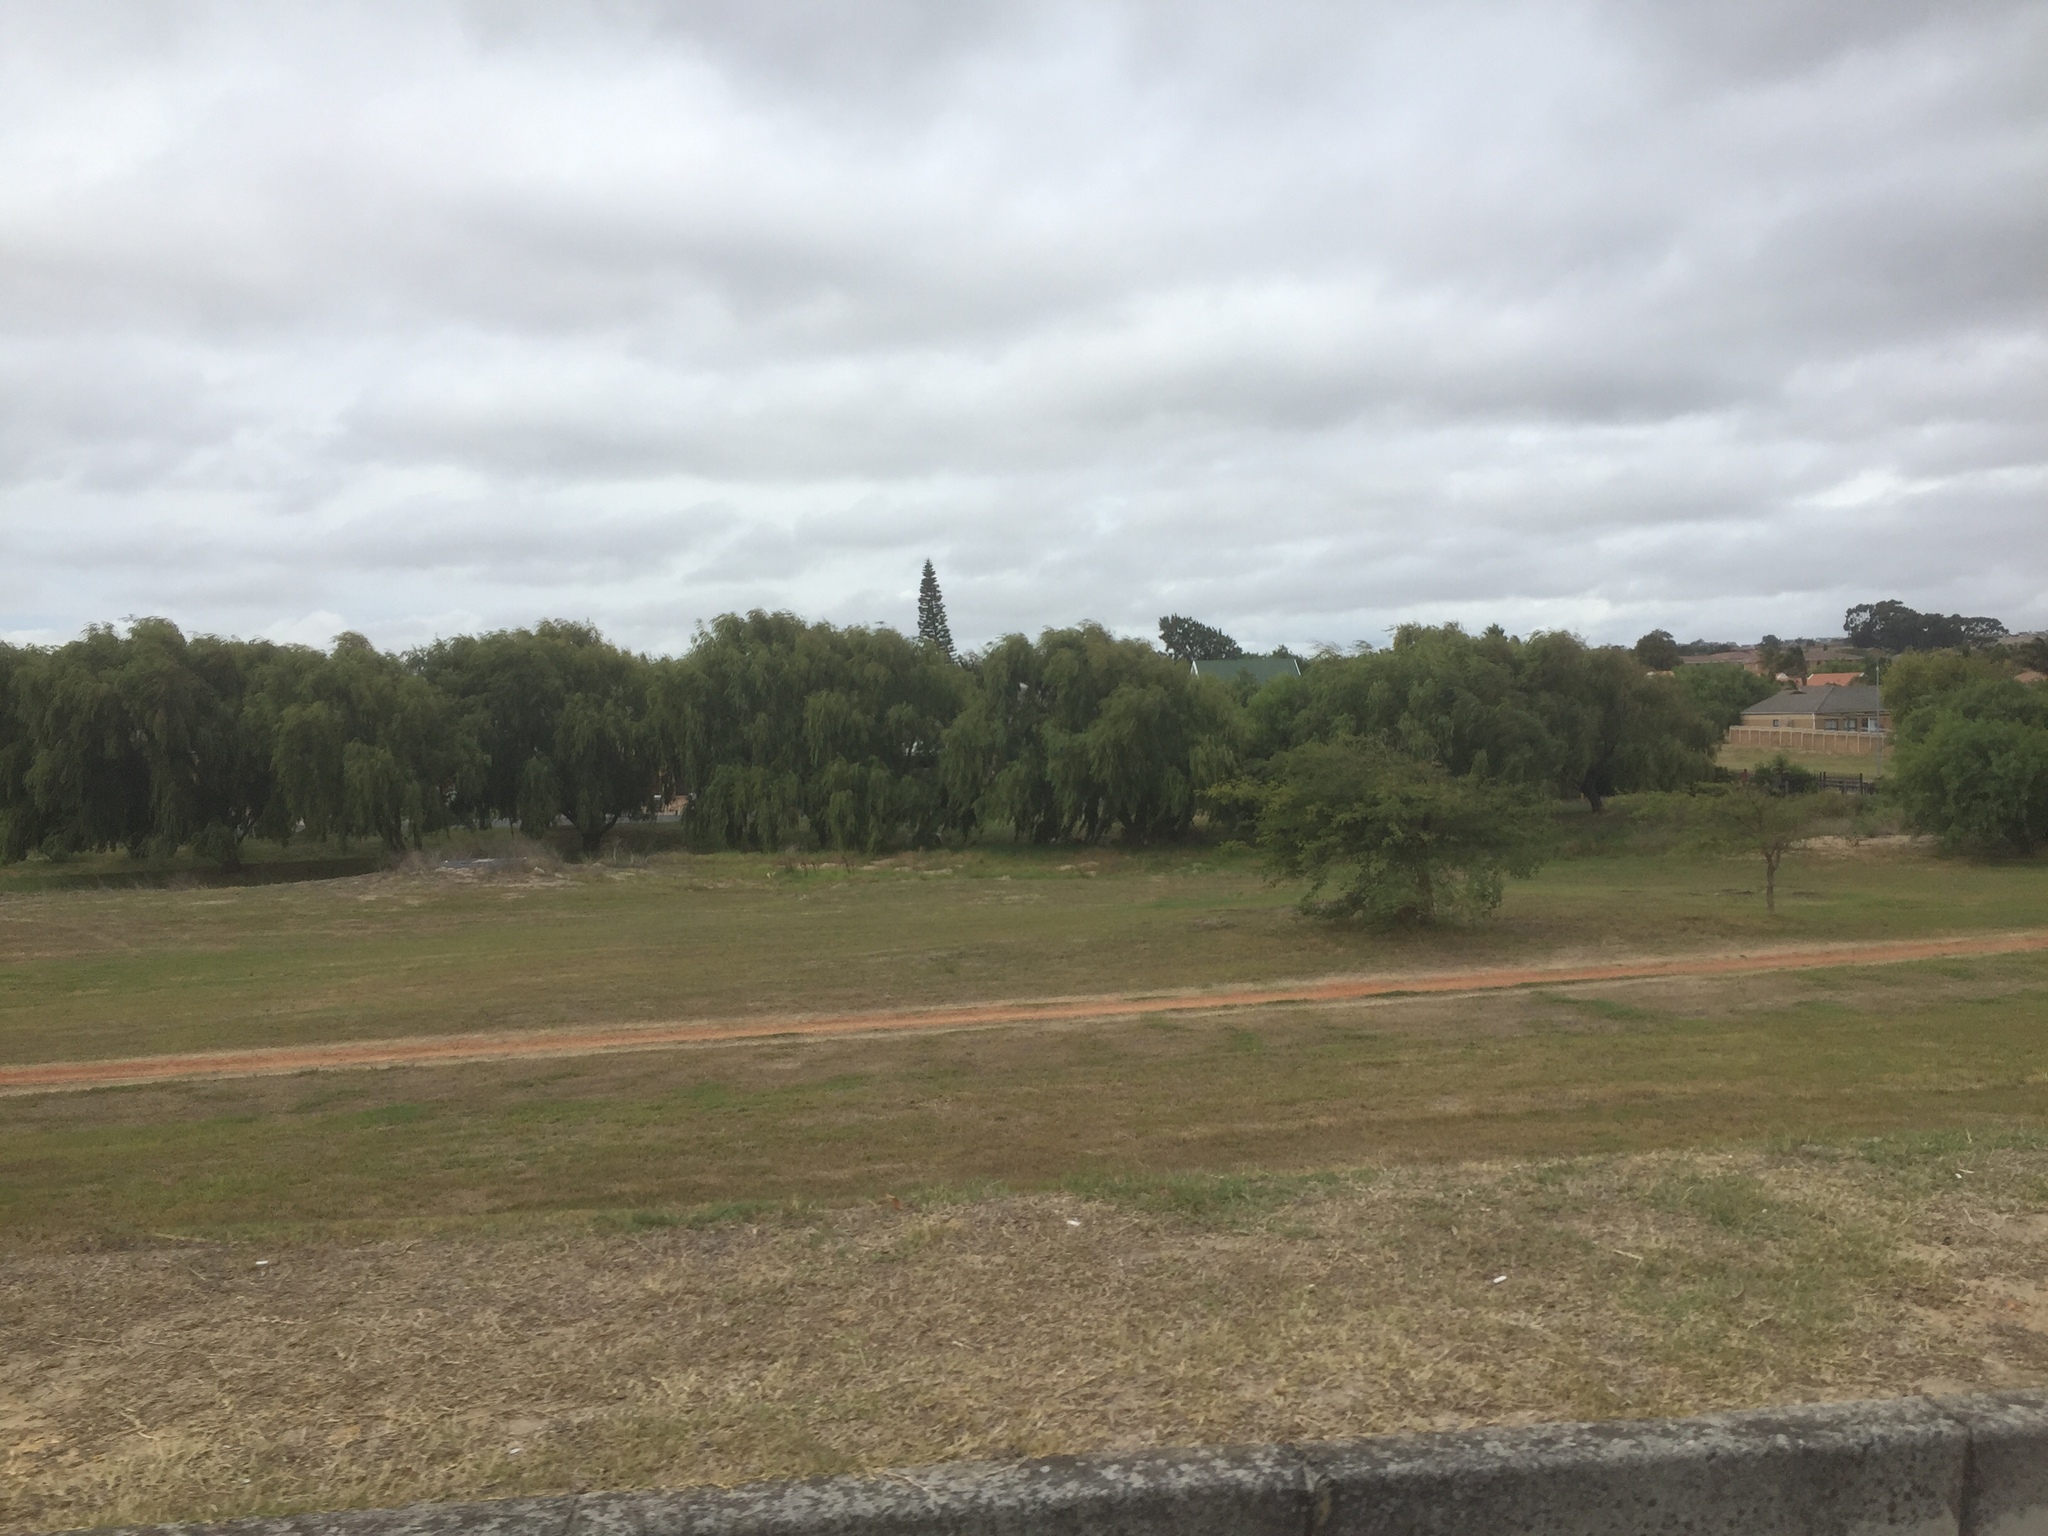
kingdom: Plantae
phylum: Tracheophyta
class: Magnoliopsida
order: Malpighiales
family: Salicaceae
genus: Salix
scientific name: Salix babylonica
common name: Weeping willow
